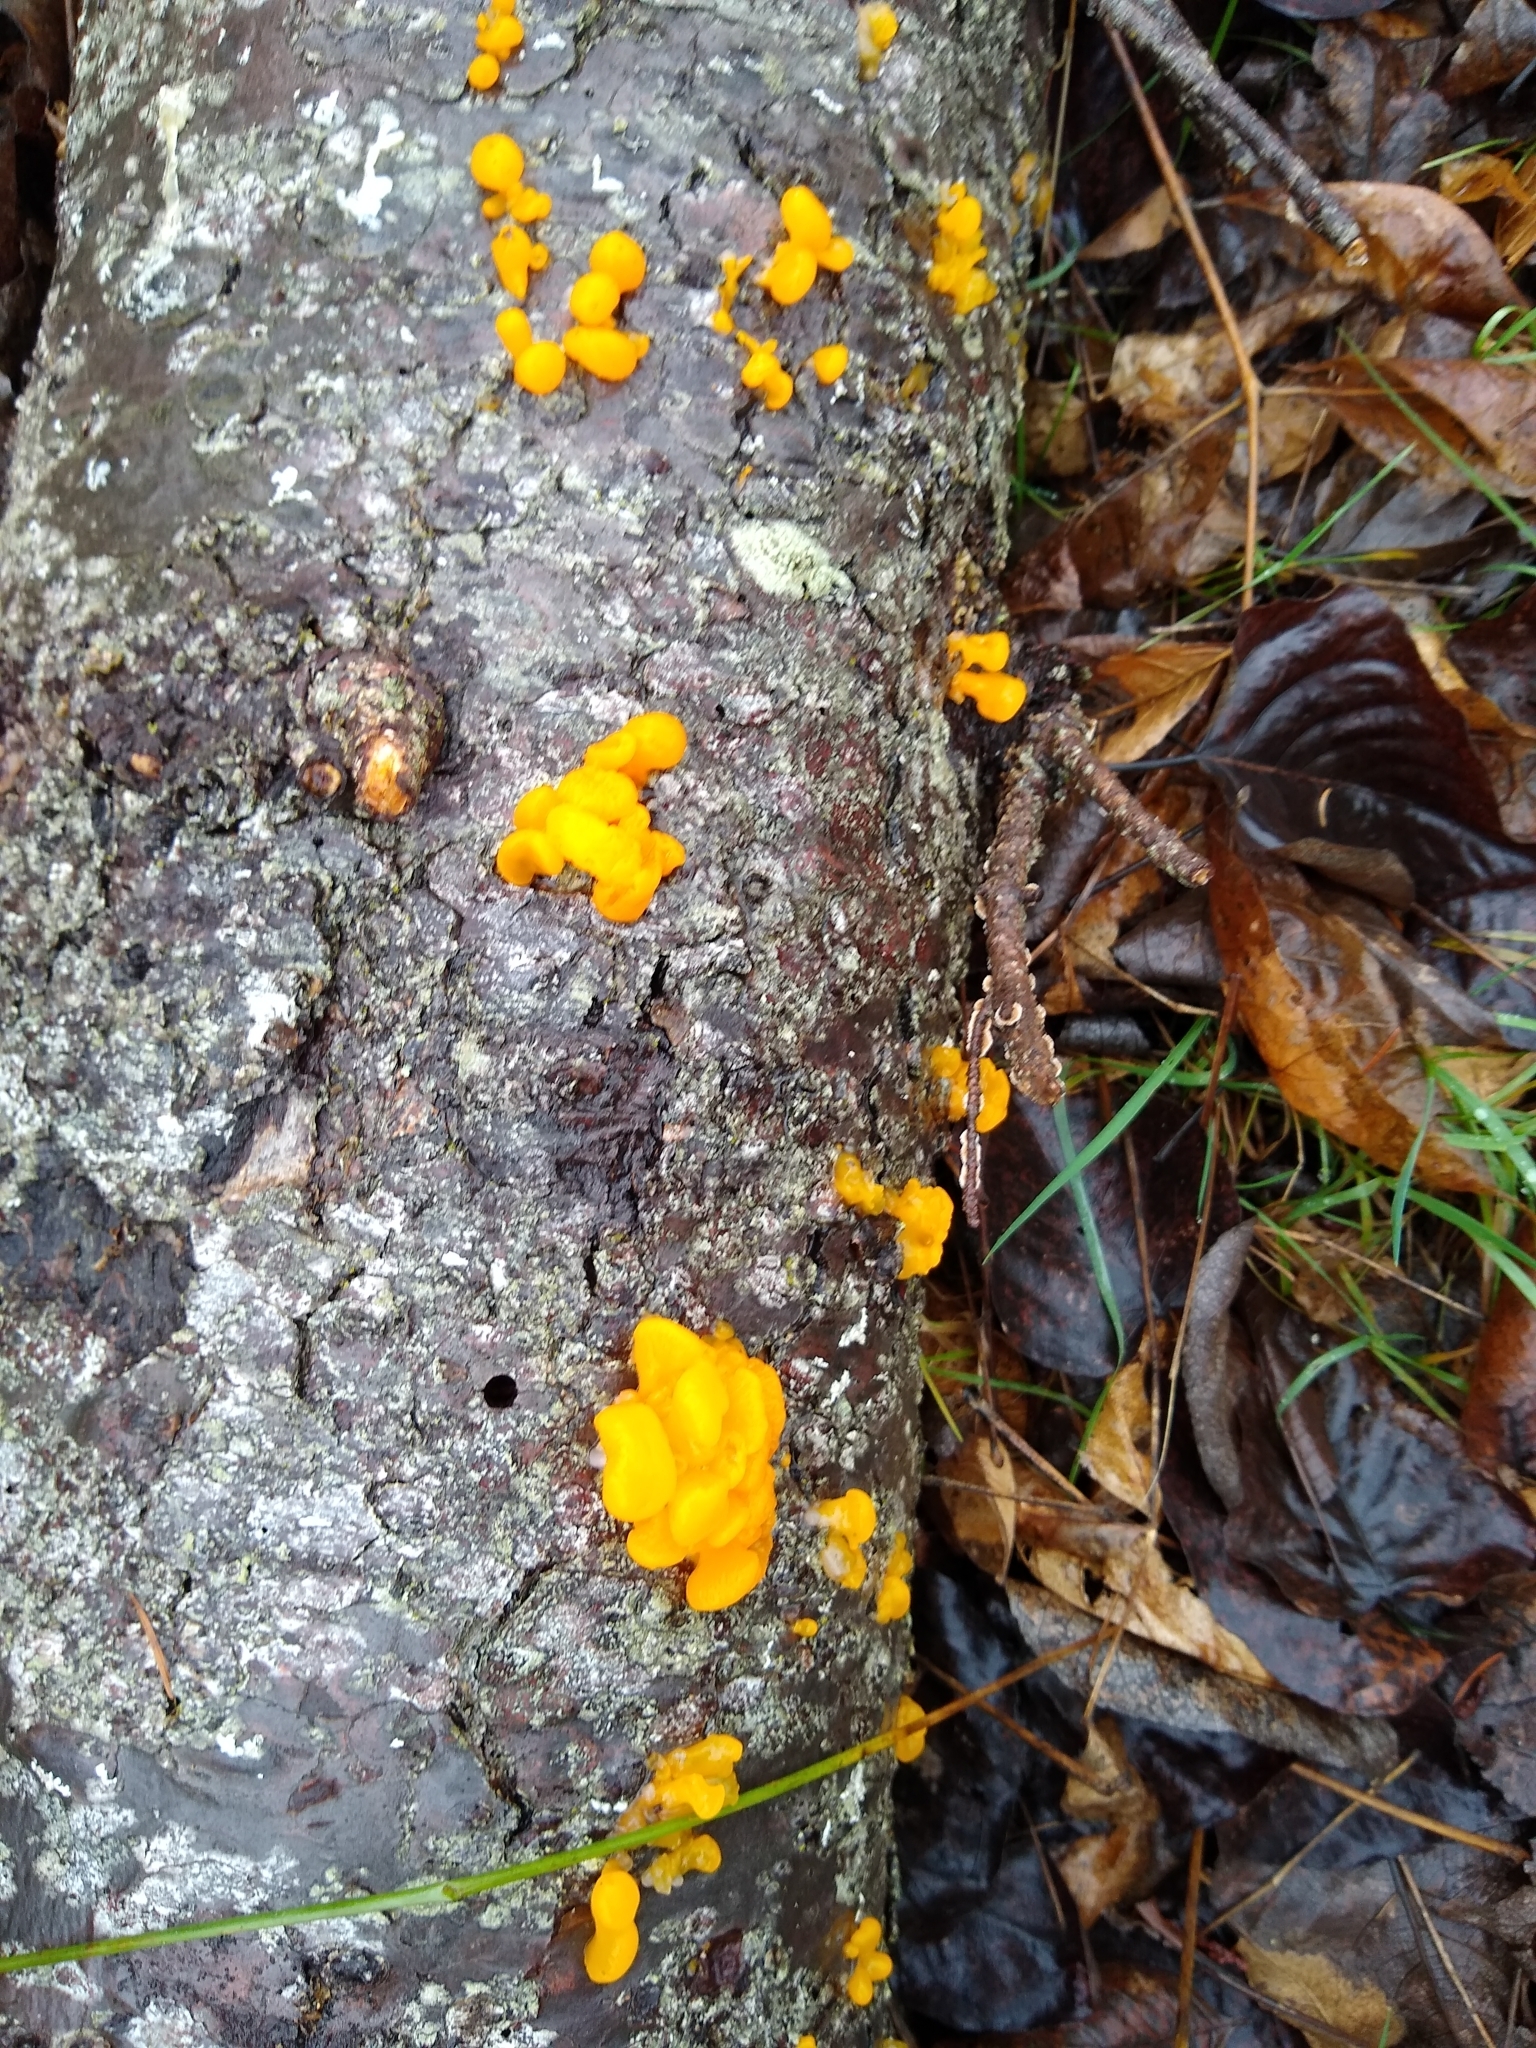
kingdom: Fungi
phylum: Basidiomycota
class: Dacrymycetes
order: Dacrymycetales
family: Dacrymycetaceae
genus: Dacrymyces
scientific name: Dacrymyces chrysospermus
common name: Orange jelly spot
